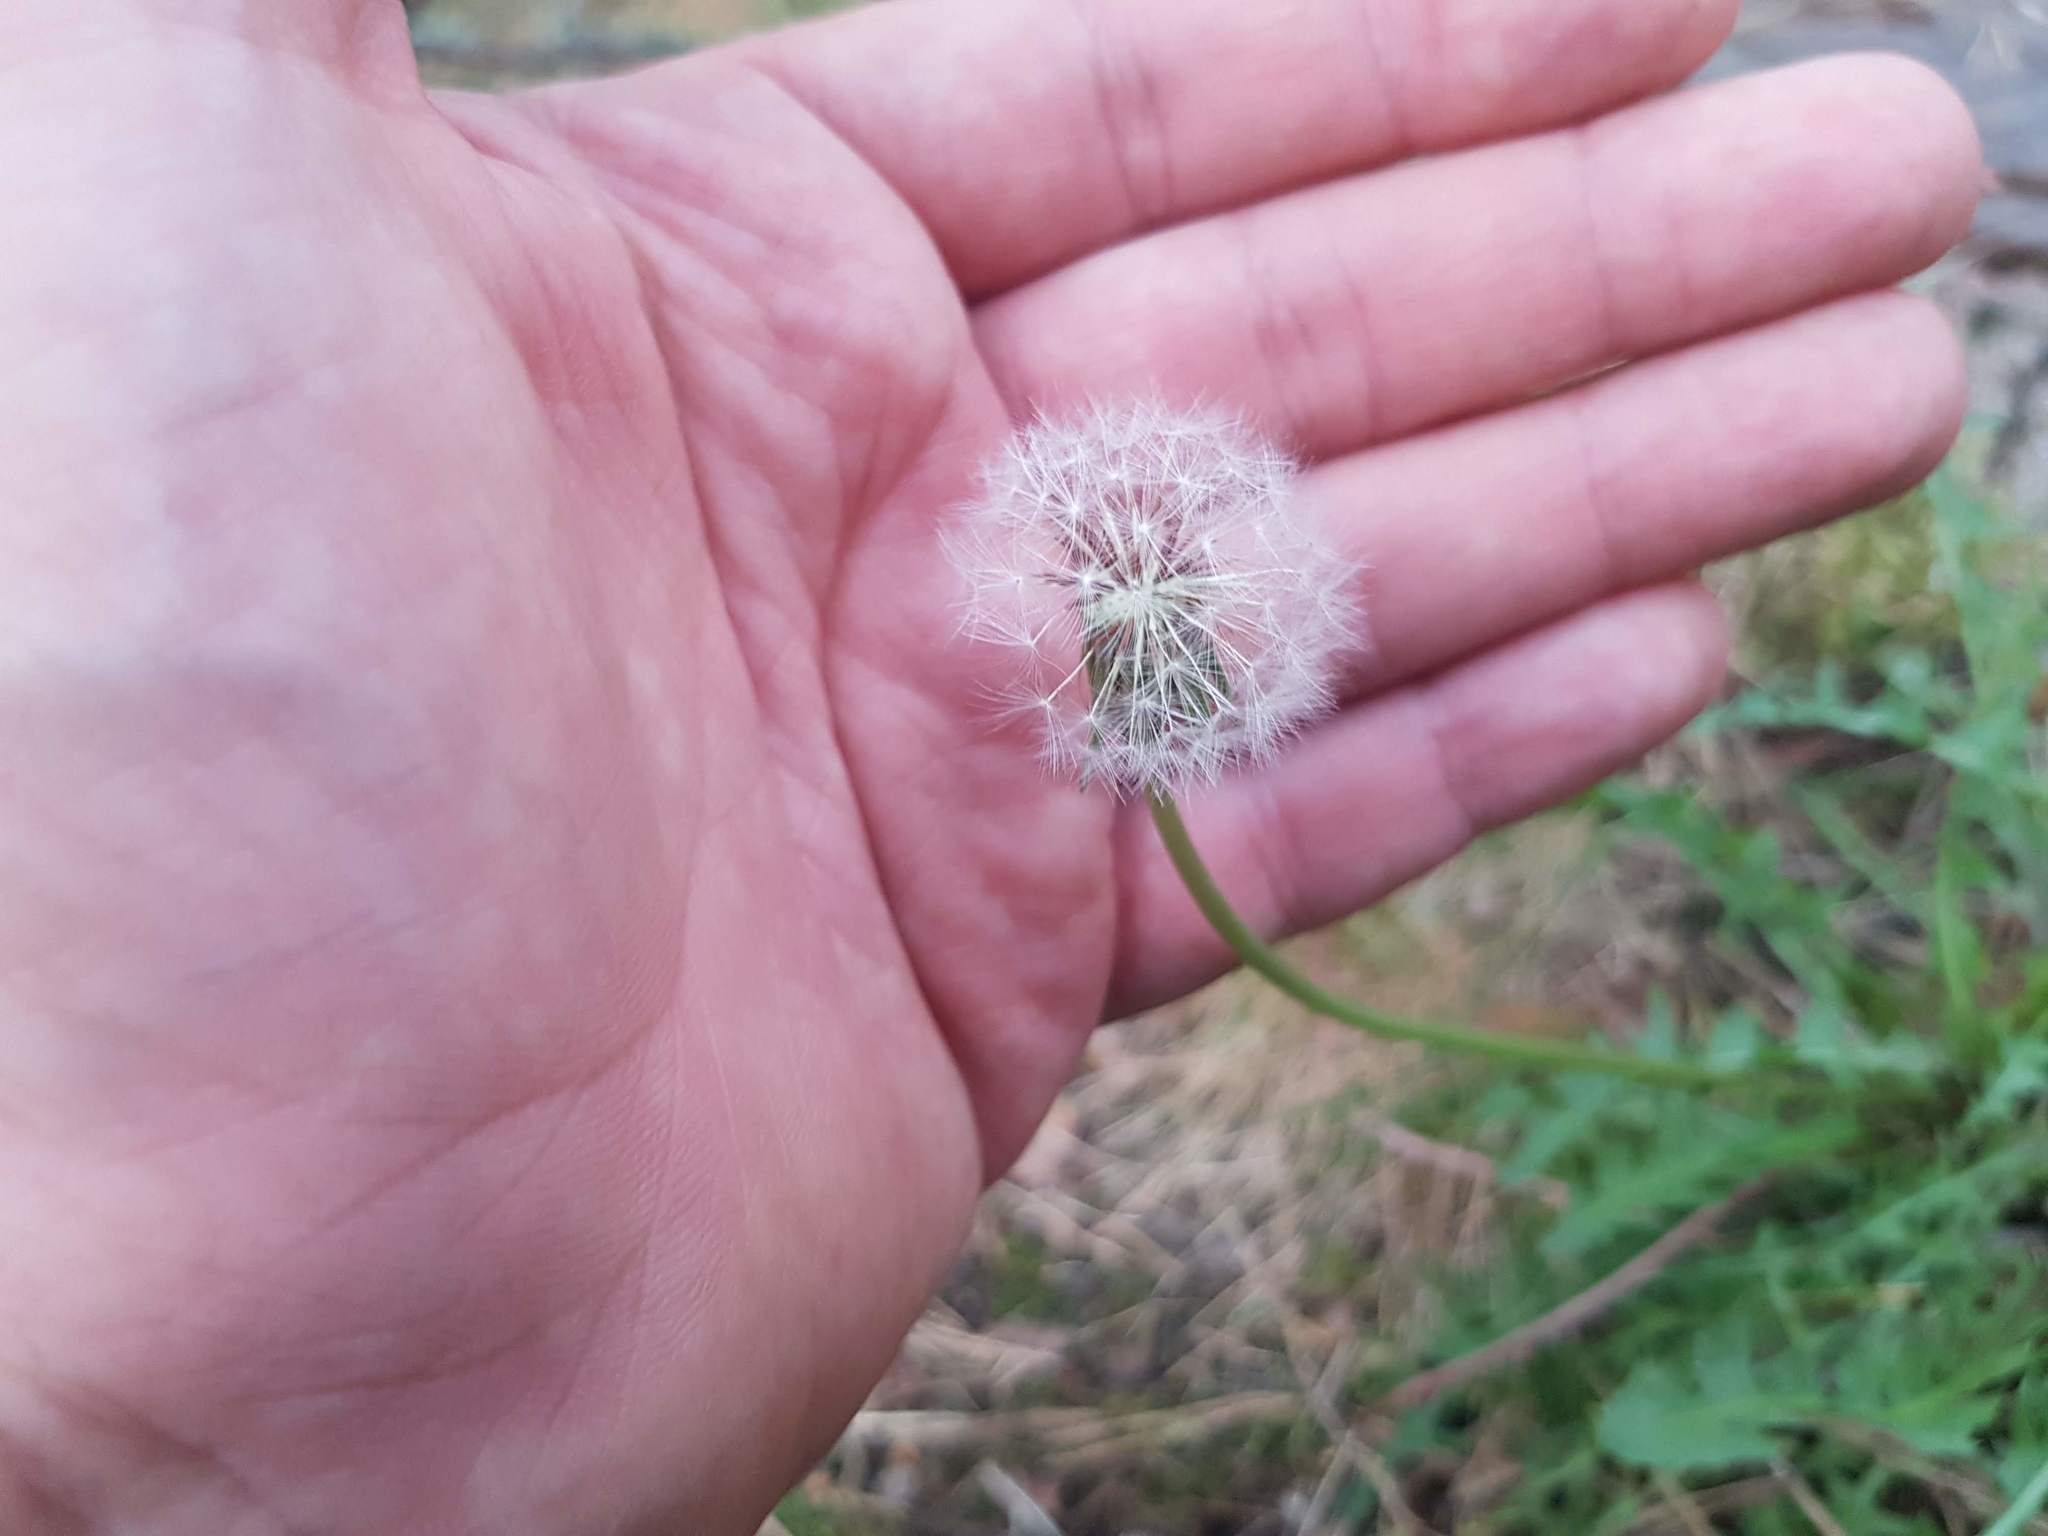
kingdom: Plantae
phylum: Tracheophyta
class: Magnoliopsida
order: Asterales
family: Asteraceae
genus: Taraxacum
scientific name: Taraxacum erythrospermum
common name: Rock dandelion
